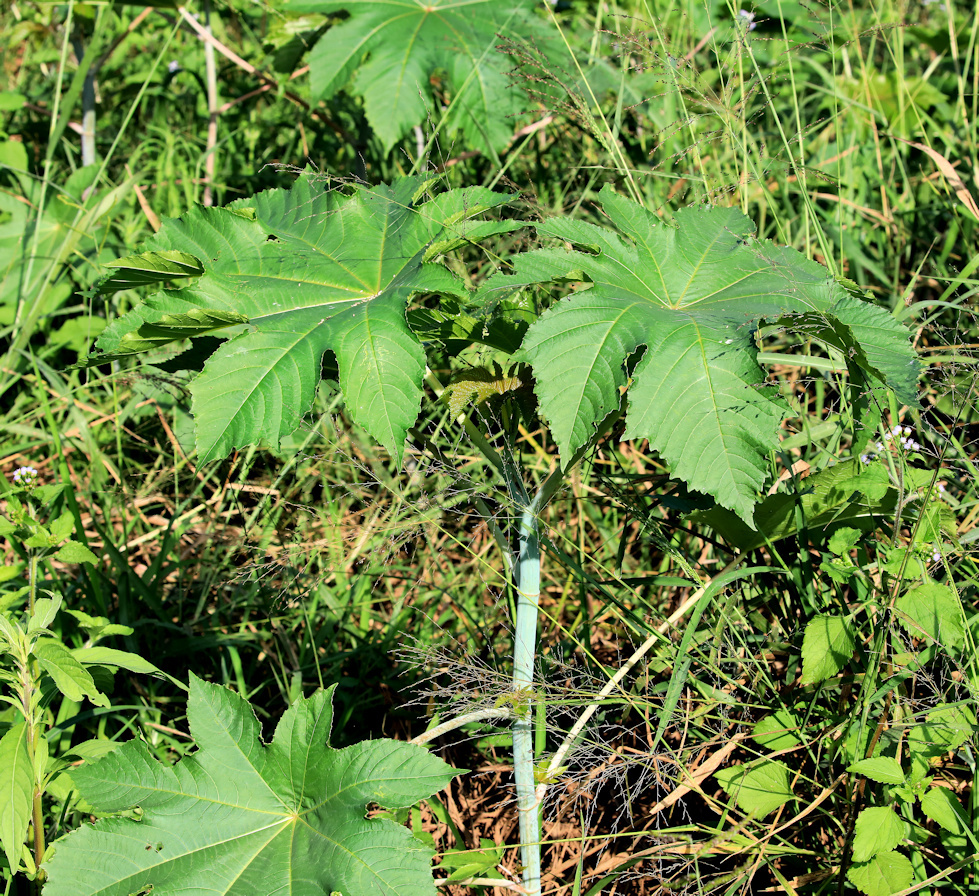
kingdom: Plantae
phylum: Tracheophyta
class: Magnoliopsida
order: Malpighiales
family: Euphorbiaceae
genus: Ricinus
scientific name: Ricinus communis
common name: Castor-oil-plant
